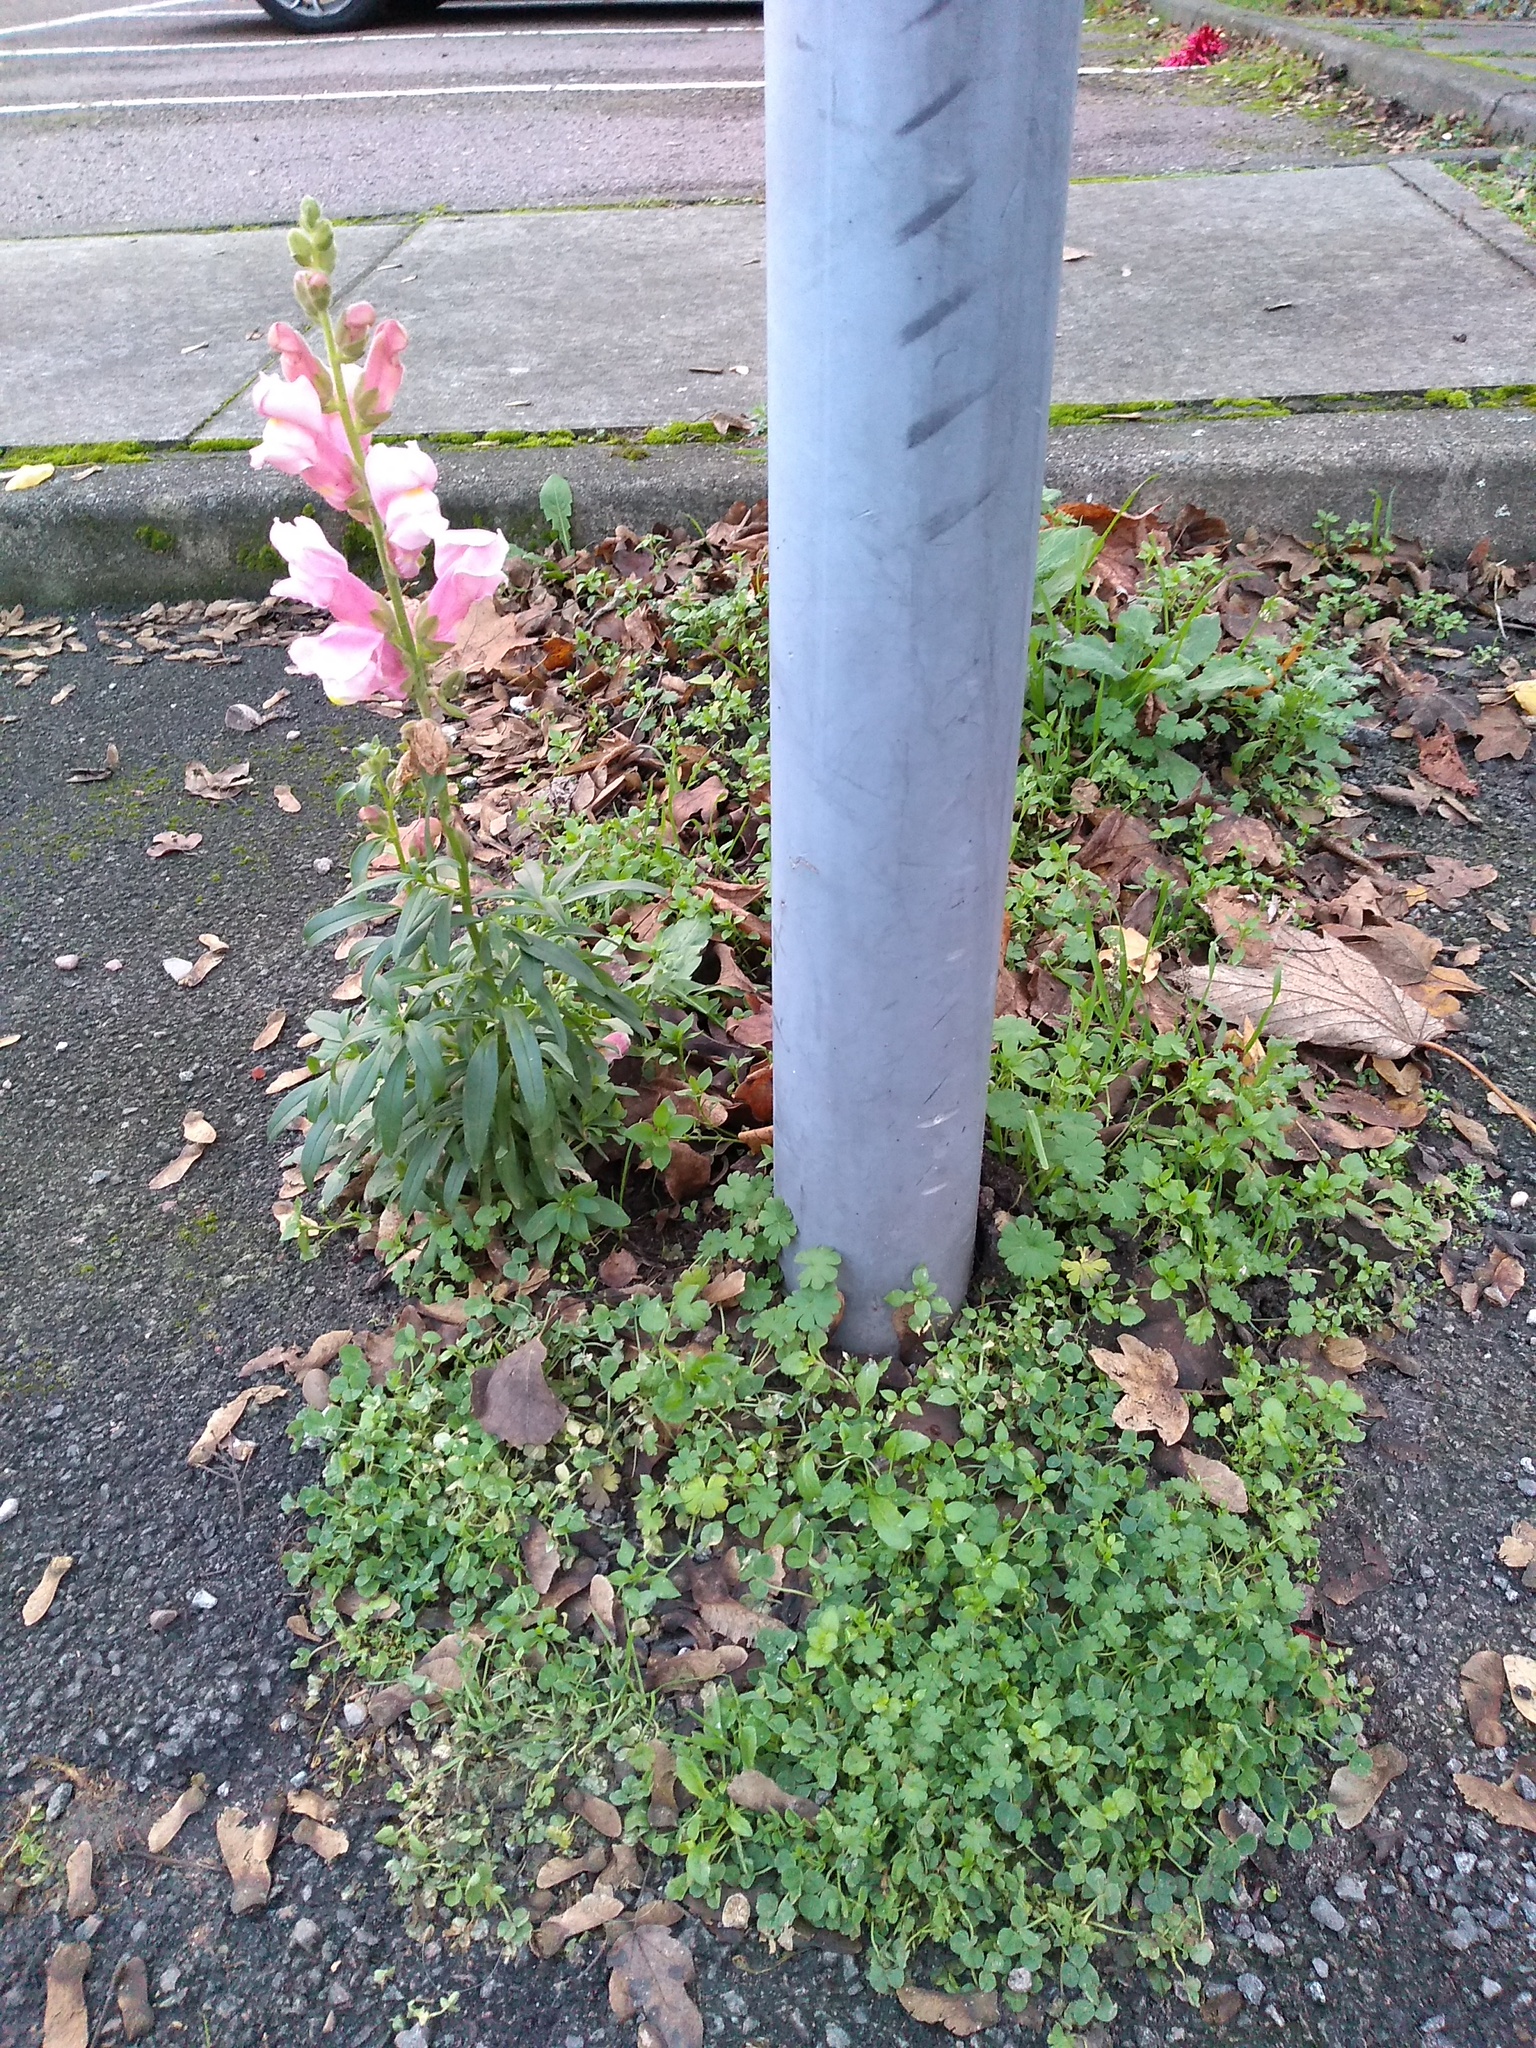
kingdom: Plantae
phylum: Tracheophyta
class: Magnoliopsida
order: Lamiales
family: Plantaginaceae
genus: Antirrhinum
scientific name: Antirrhinum majus
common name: Snapdragon
